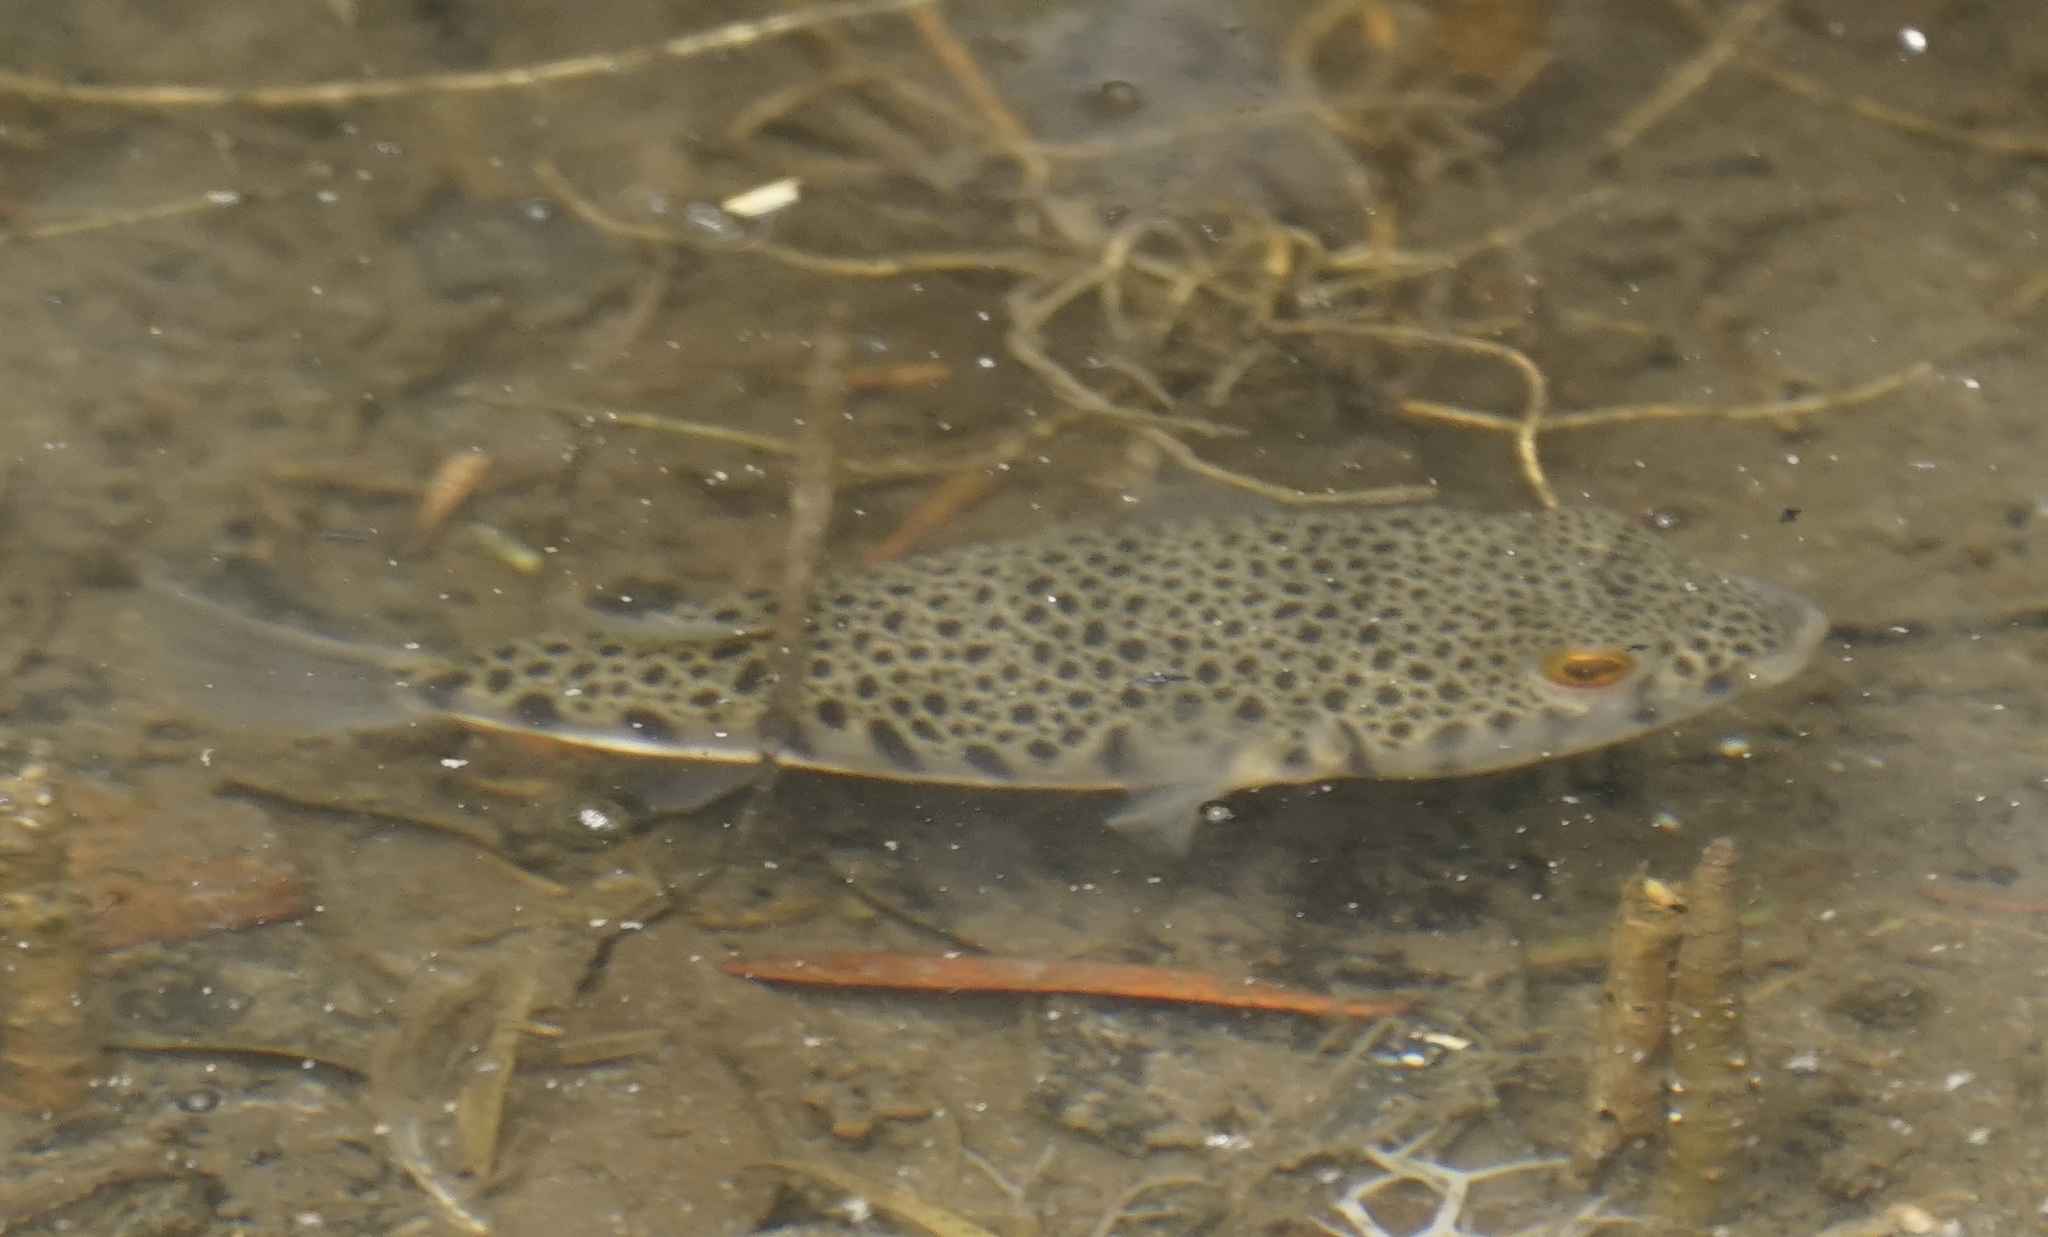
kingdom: Animalia
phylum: Chordata
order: Tetraodontiformes
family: Tetraodontidae
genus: Tetractenos
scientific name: Tetractenos hamiltoni
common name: Common toadfish
